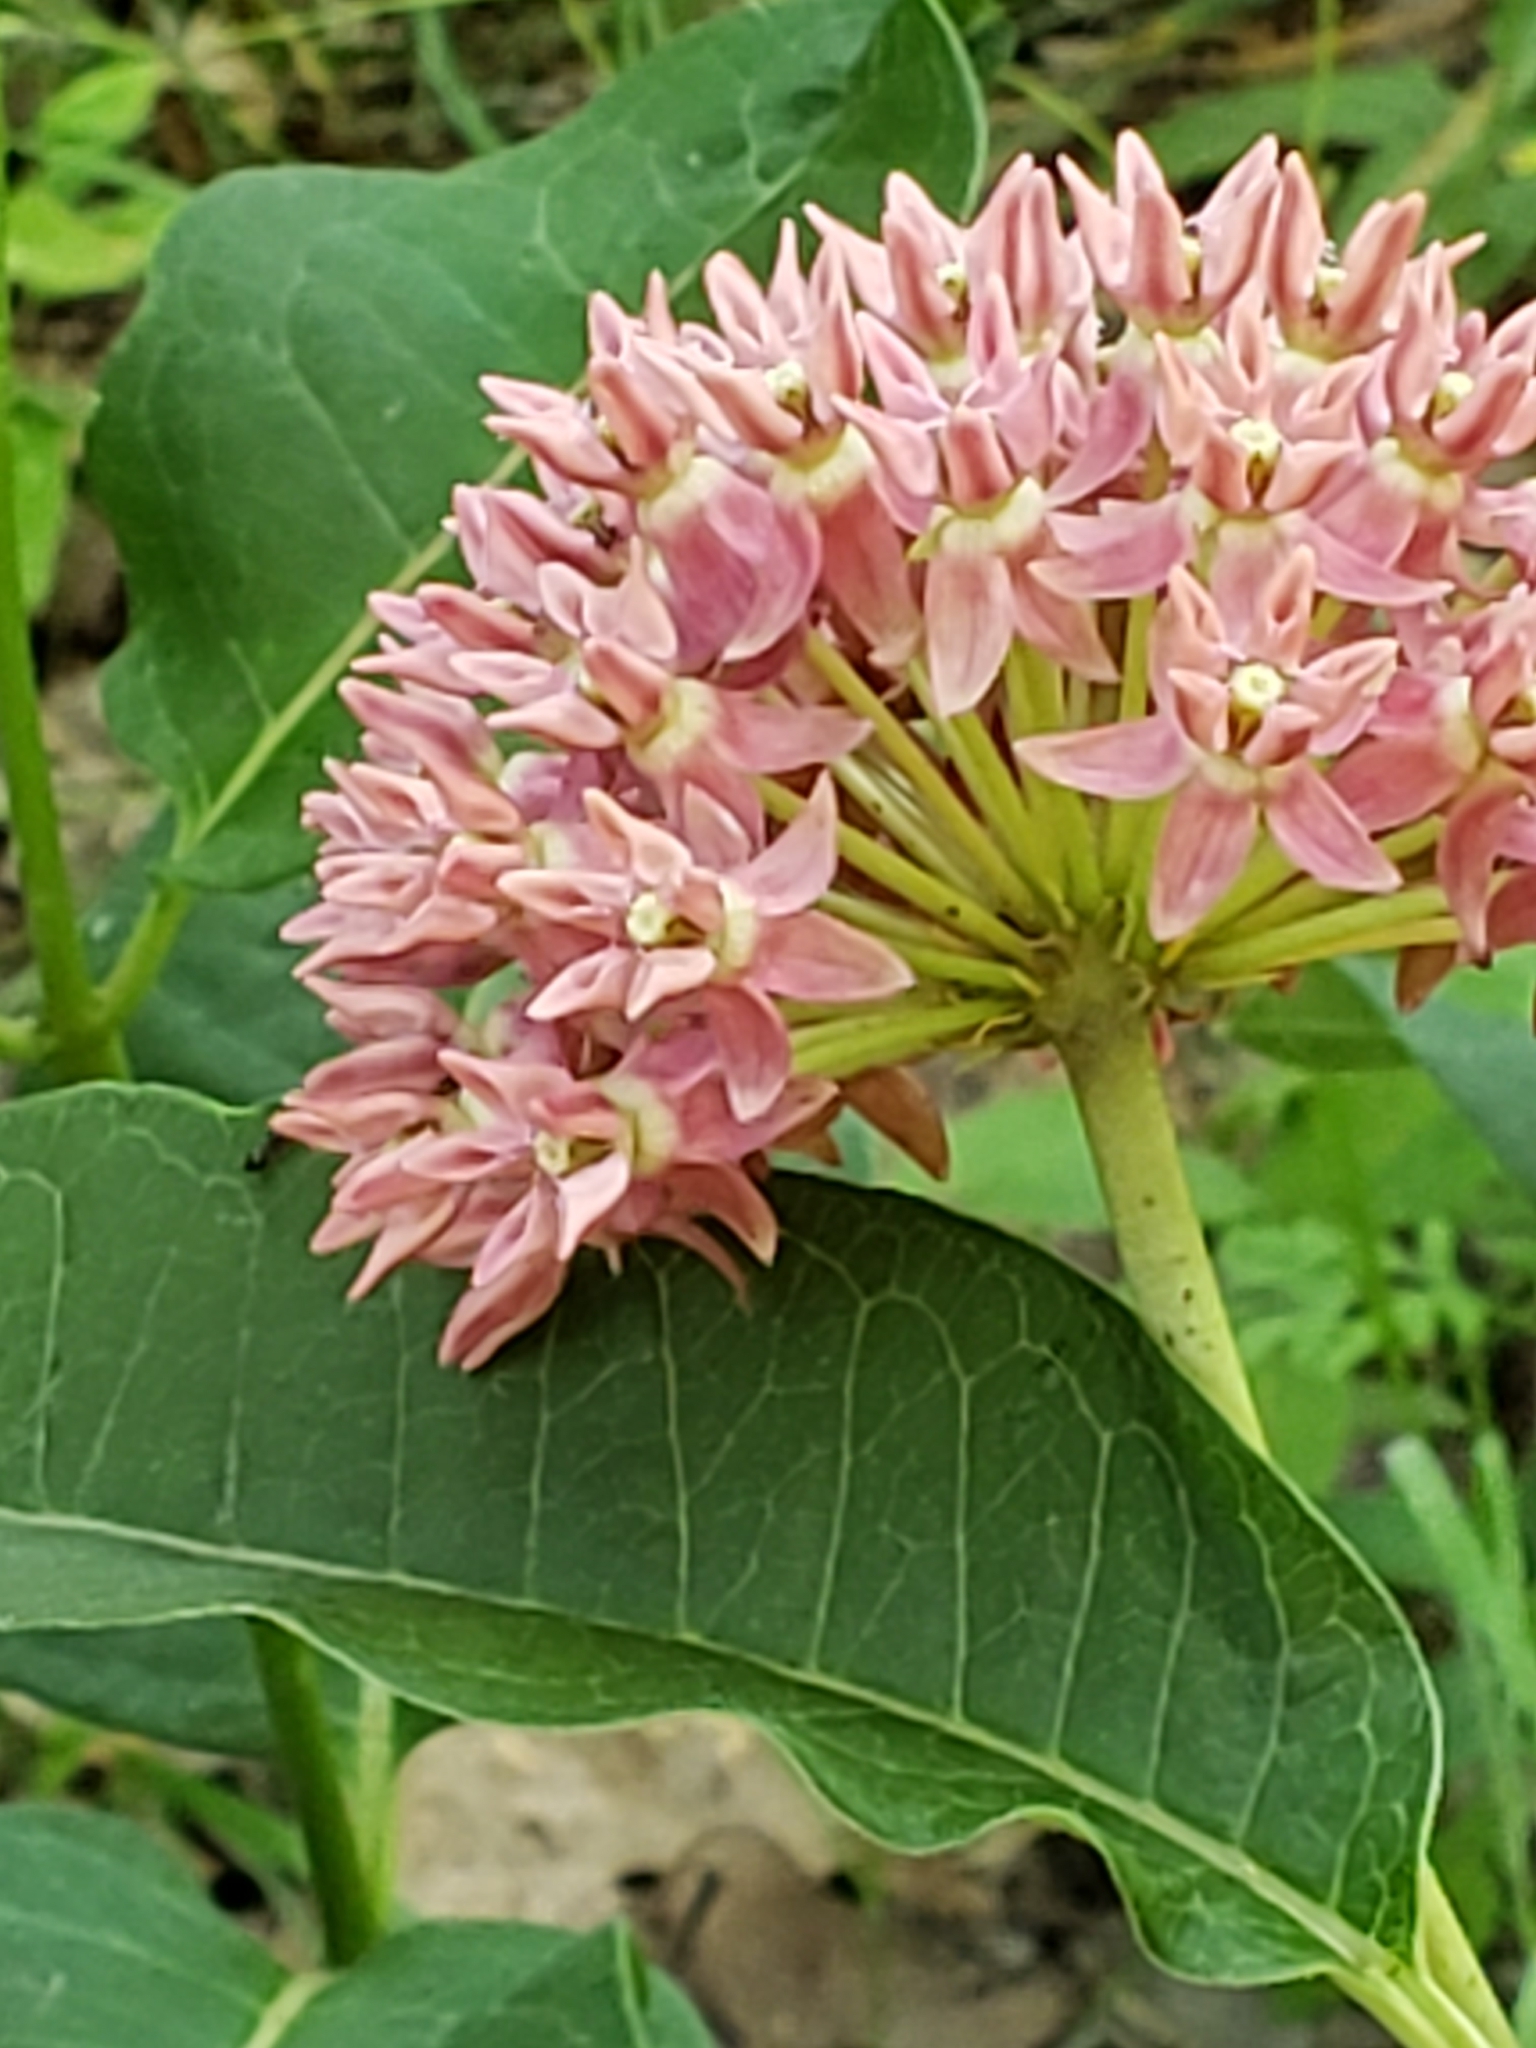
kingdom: Plantae
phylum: Tracheophyta
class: Magnoliopsida
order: Gentianales
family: Apocynaceae
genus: Asclepias
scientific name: Asclepias purpurascens
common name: Purple milkweed
